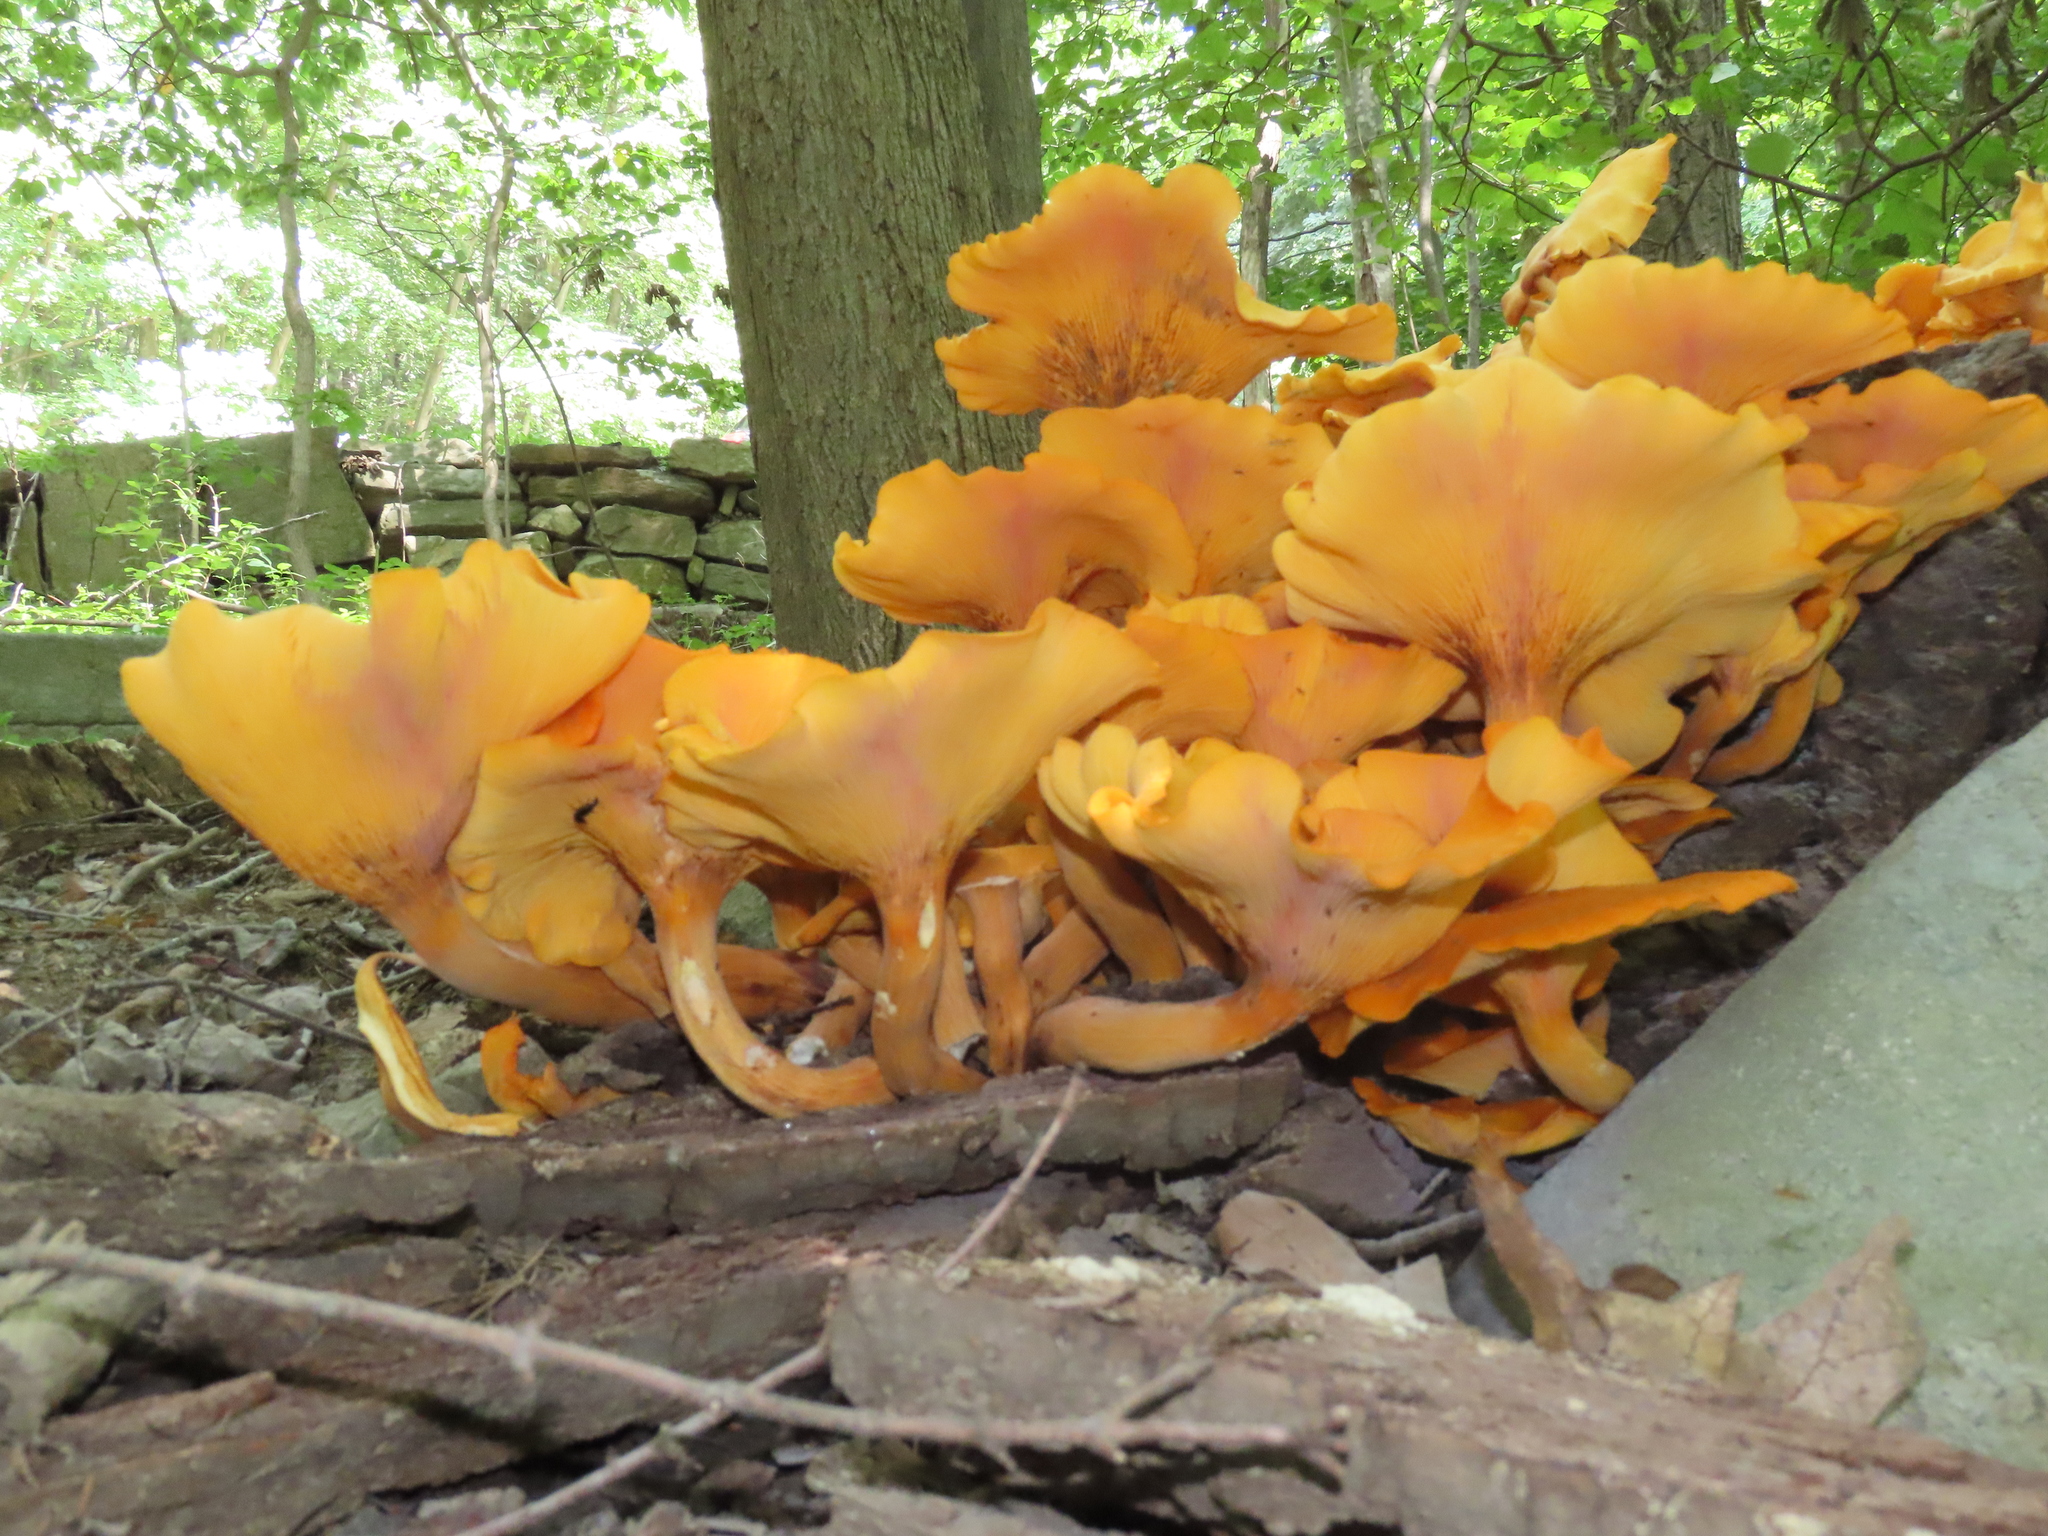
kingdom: Fungi
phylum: Basidiomycota
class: Agaricomycetes
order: Agaricales
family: Omphalotaceae
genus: Omphalotus
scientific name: Omphalotus illudens
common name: Jack o lantern
